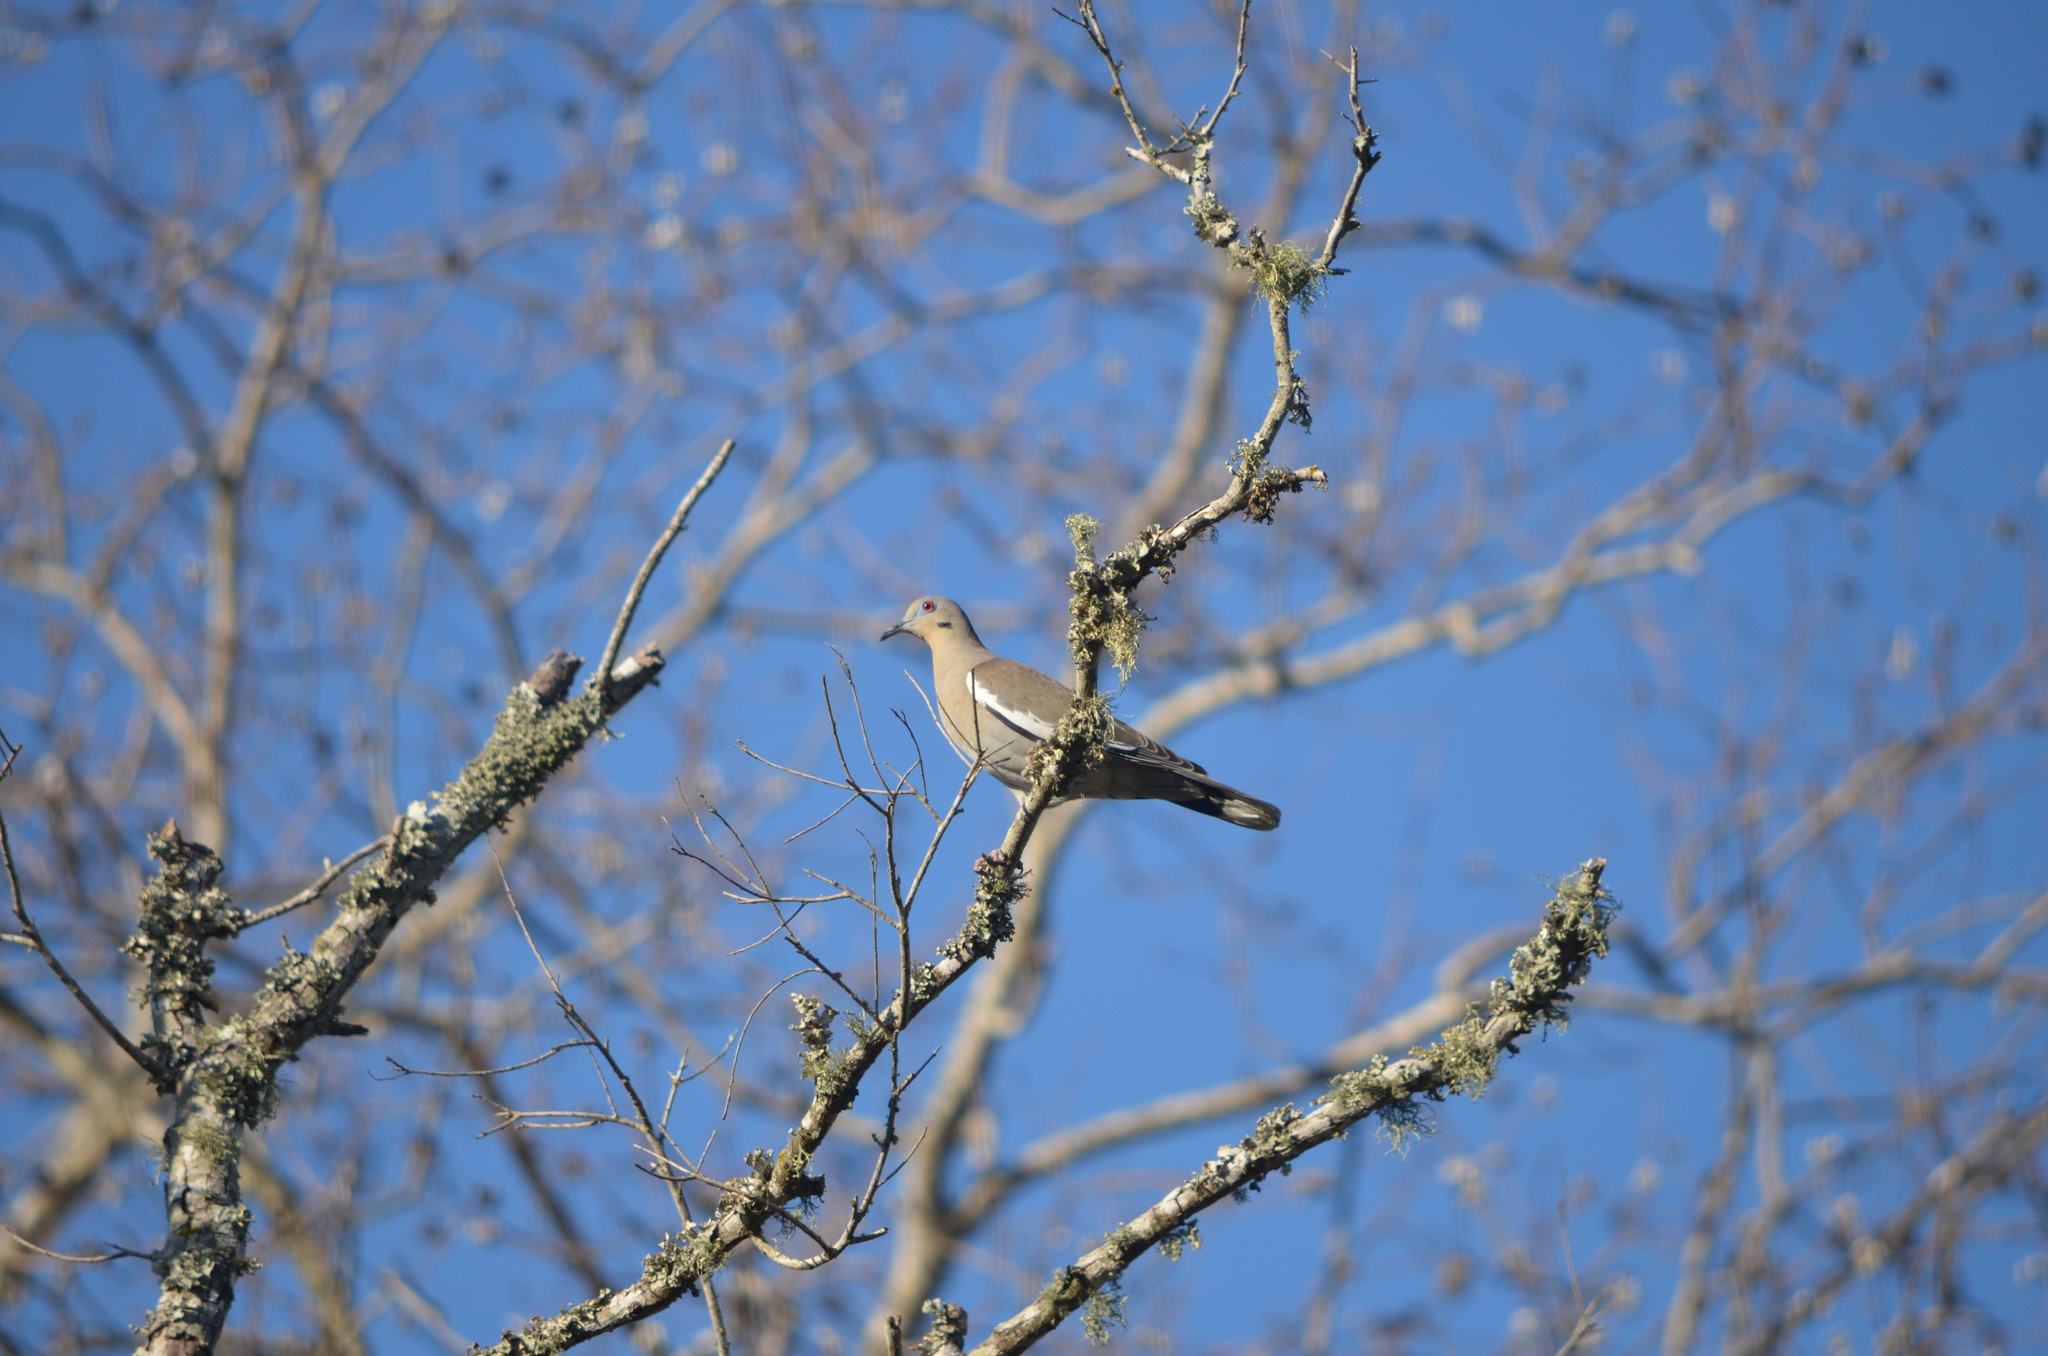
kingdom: Animalia
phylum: Chordata
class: Aves
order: Columbiformes
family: Columbidae
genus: Zenaida
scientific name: Zenaida asiatica
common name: White-winged dove
